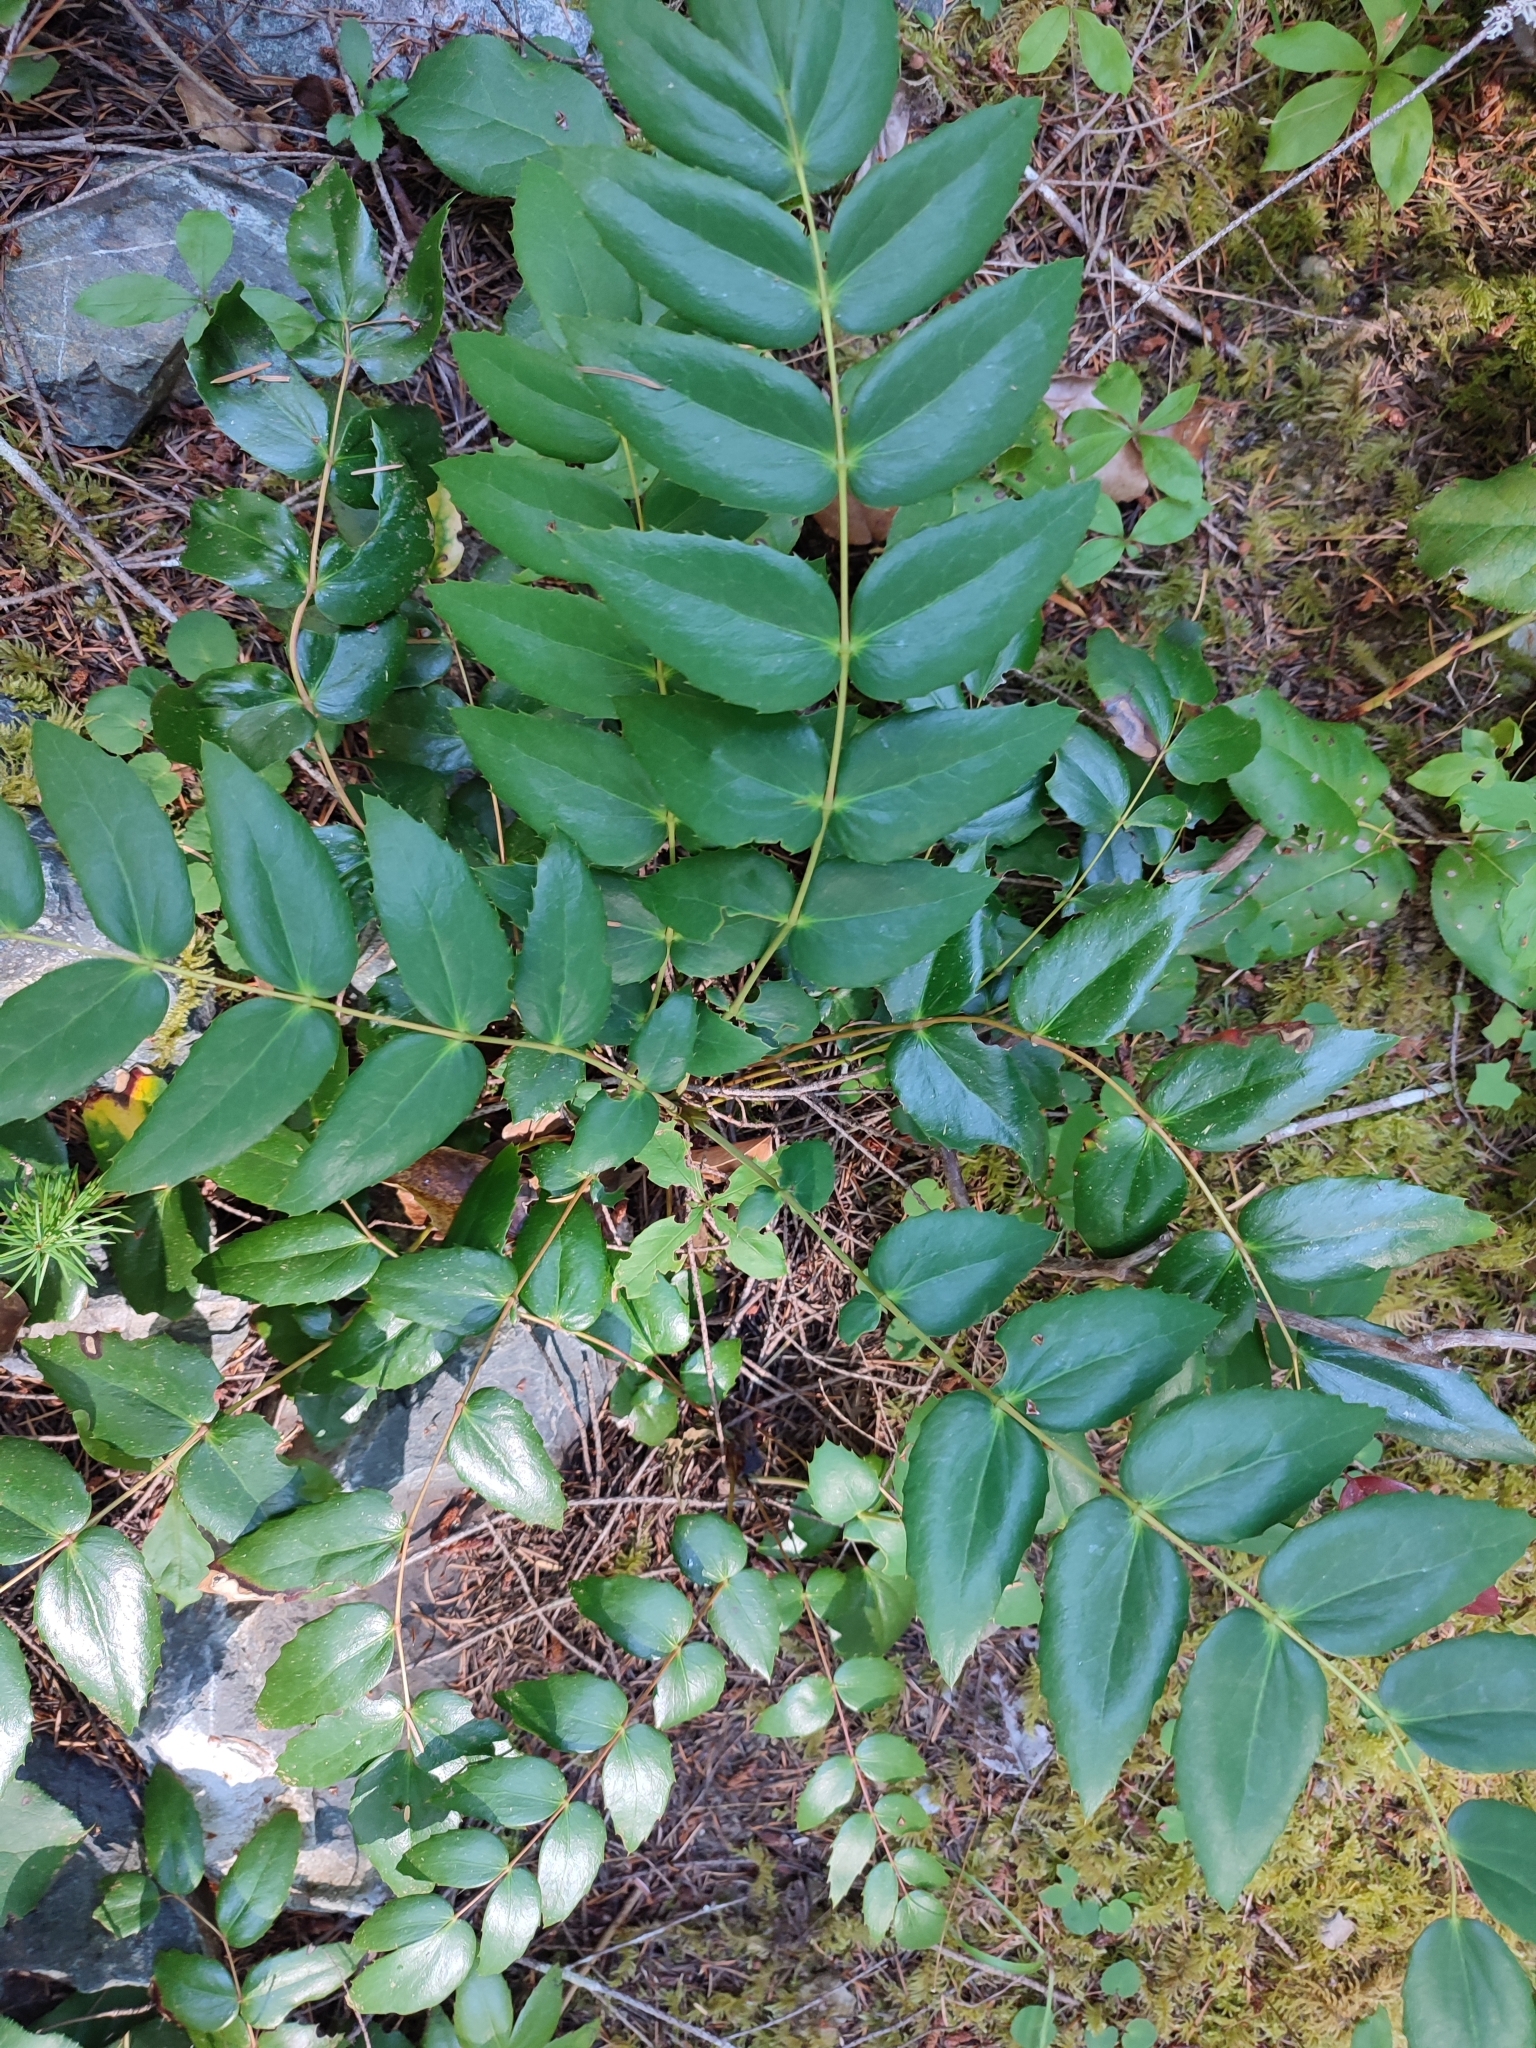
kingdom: Plantae
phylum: Tracheophyta
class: Magnoliopsida
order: Ranunculales
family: Berberidaceae
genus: Mahonia
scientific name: Mahonia nervosa
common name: Cascade oregon-grape
